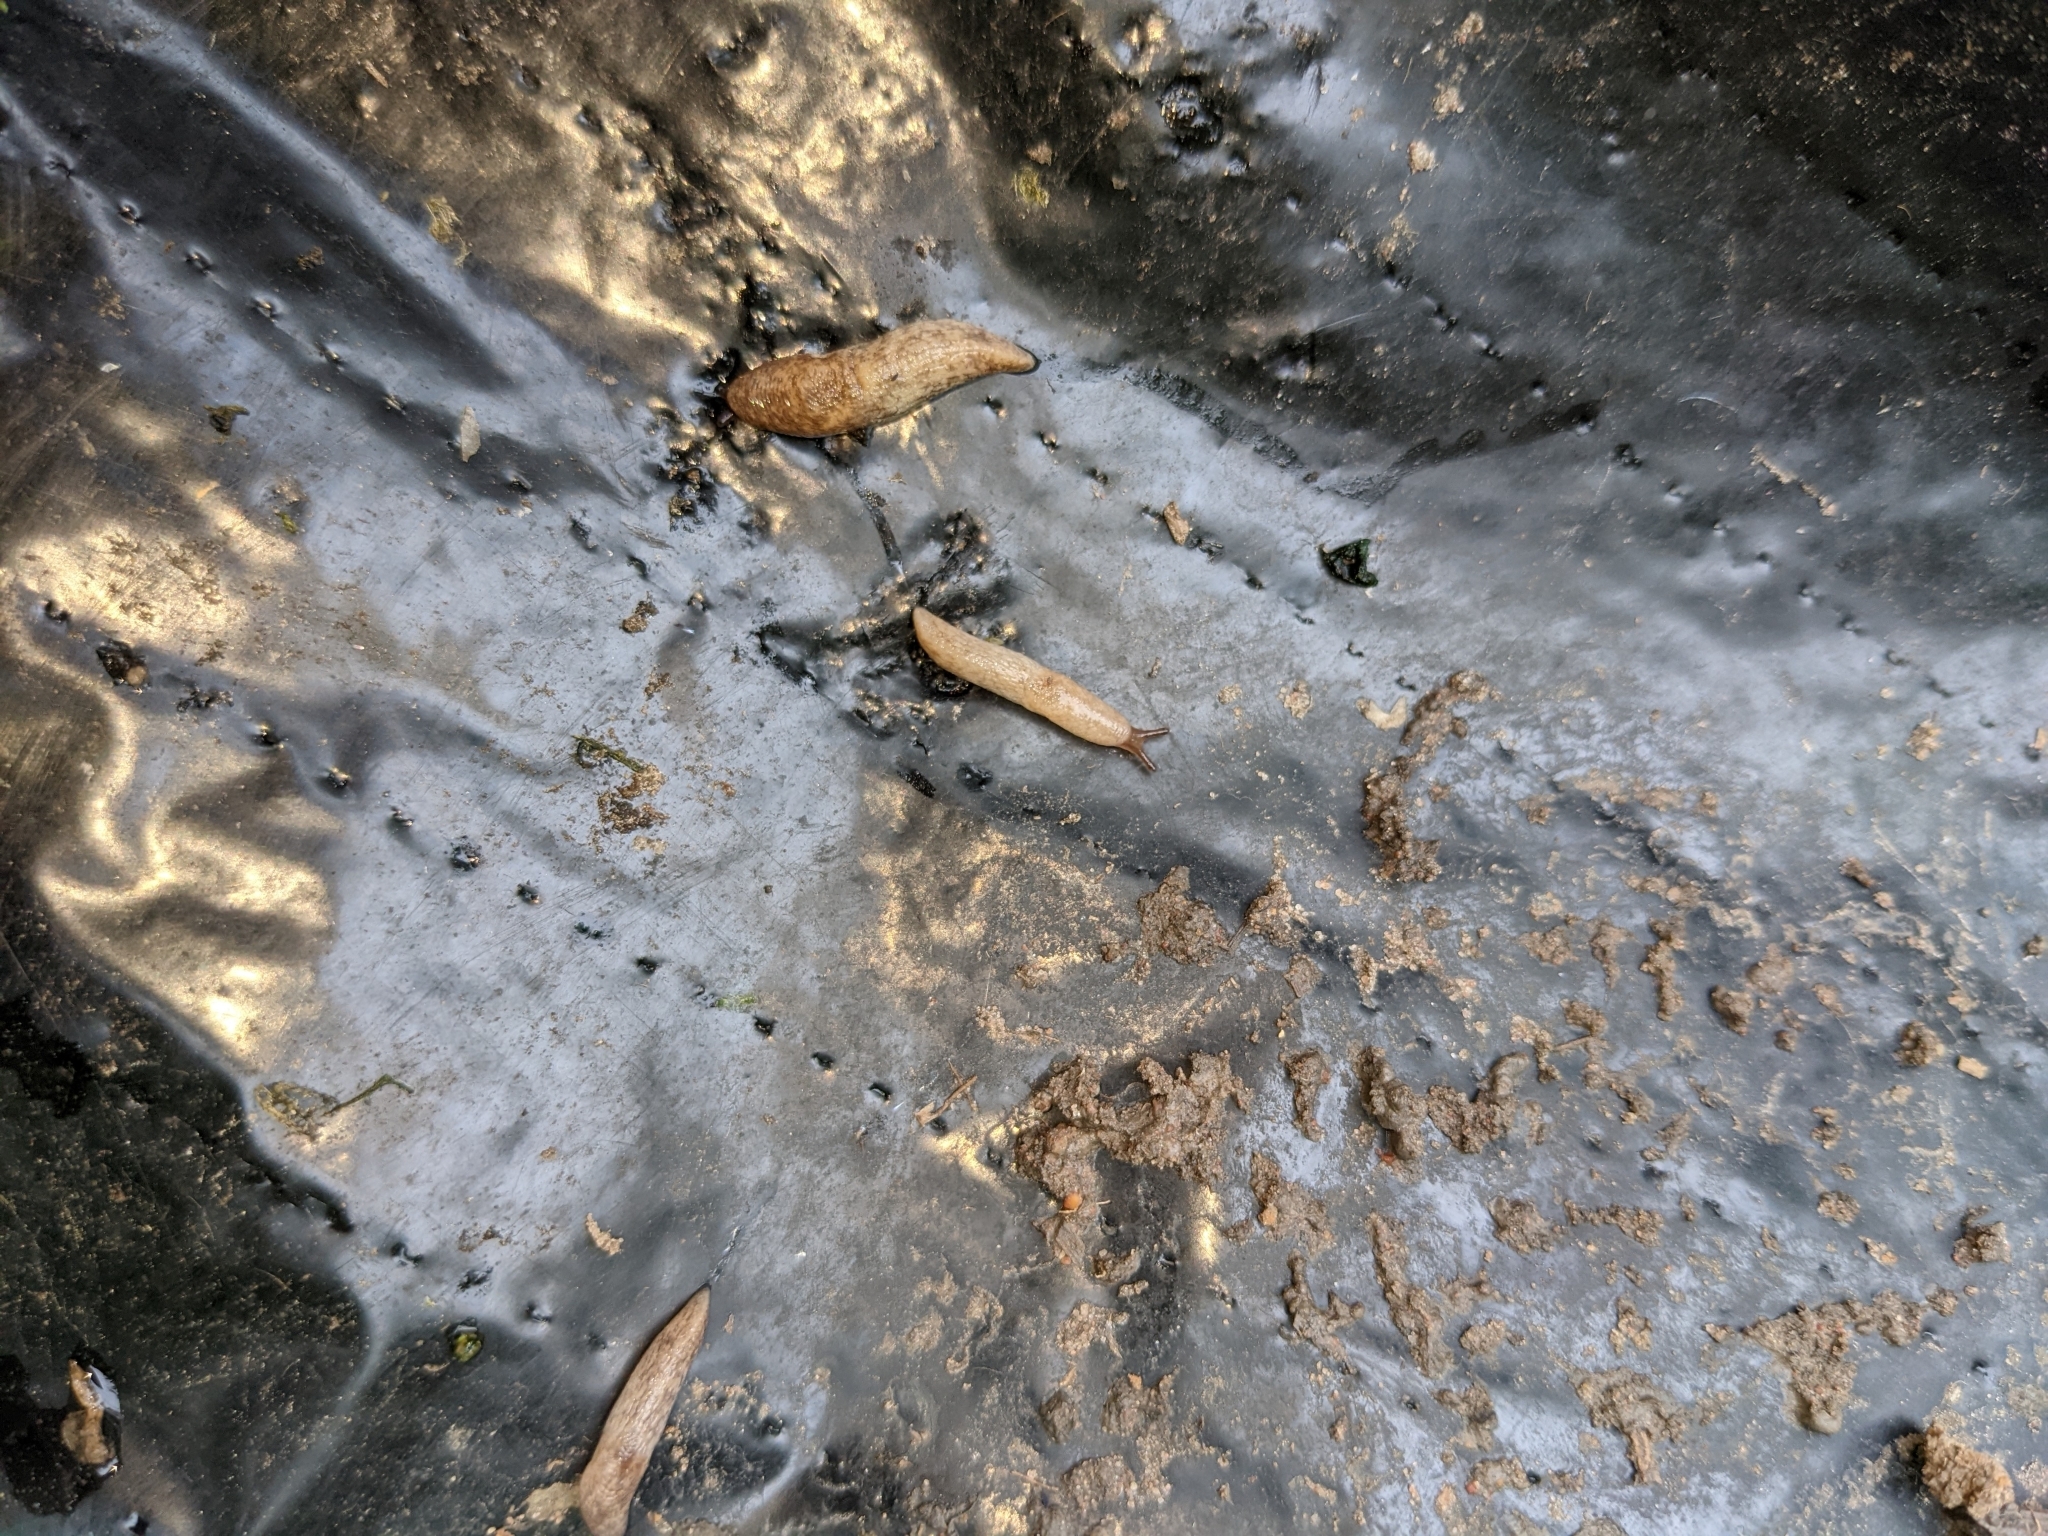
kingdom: Animalia
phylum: Mollusca
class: Gastropoda
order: Stylommatophora
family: Agriolimacidae
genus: Deroceras
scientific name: Deroceras reticulatum
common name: Gray field slug
